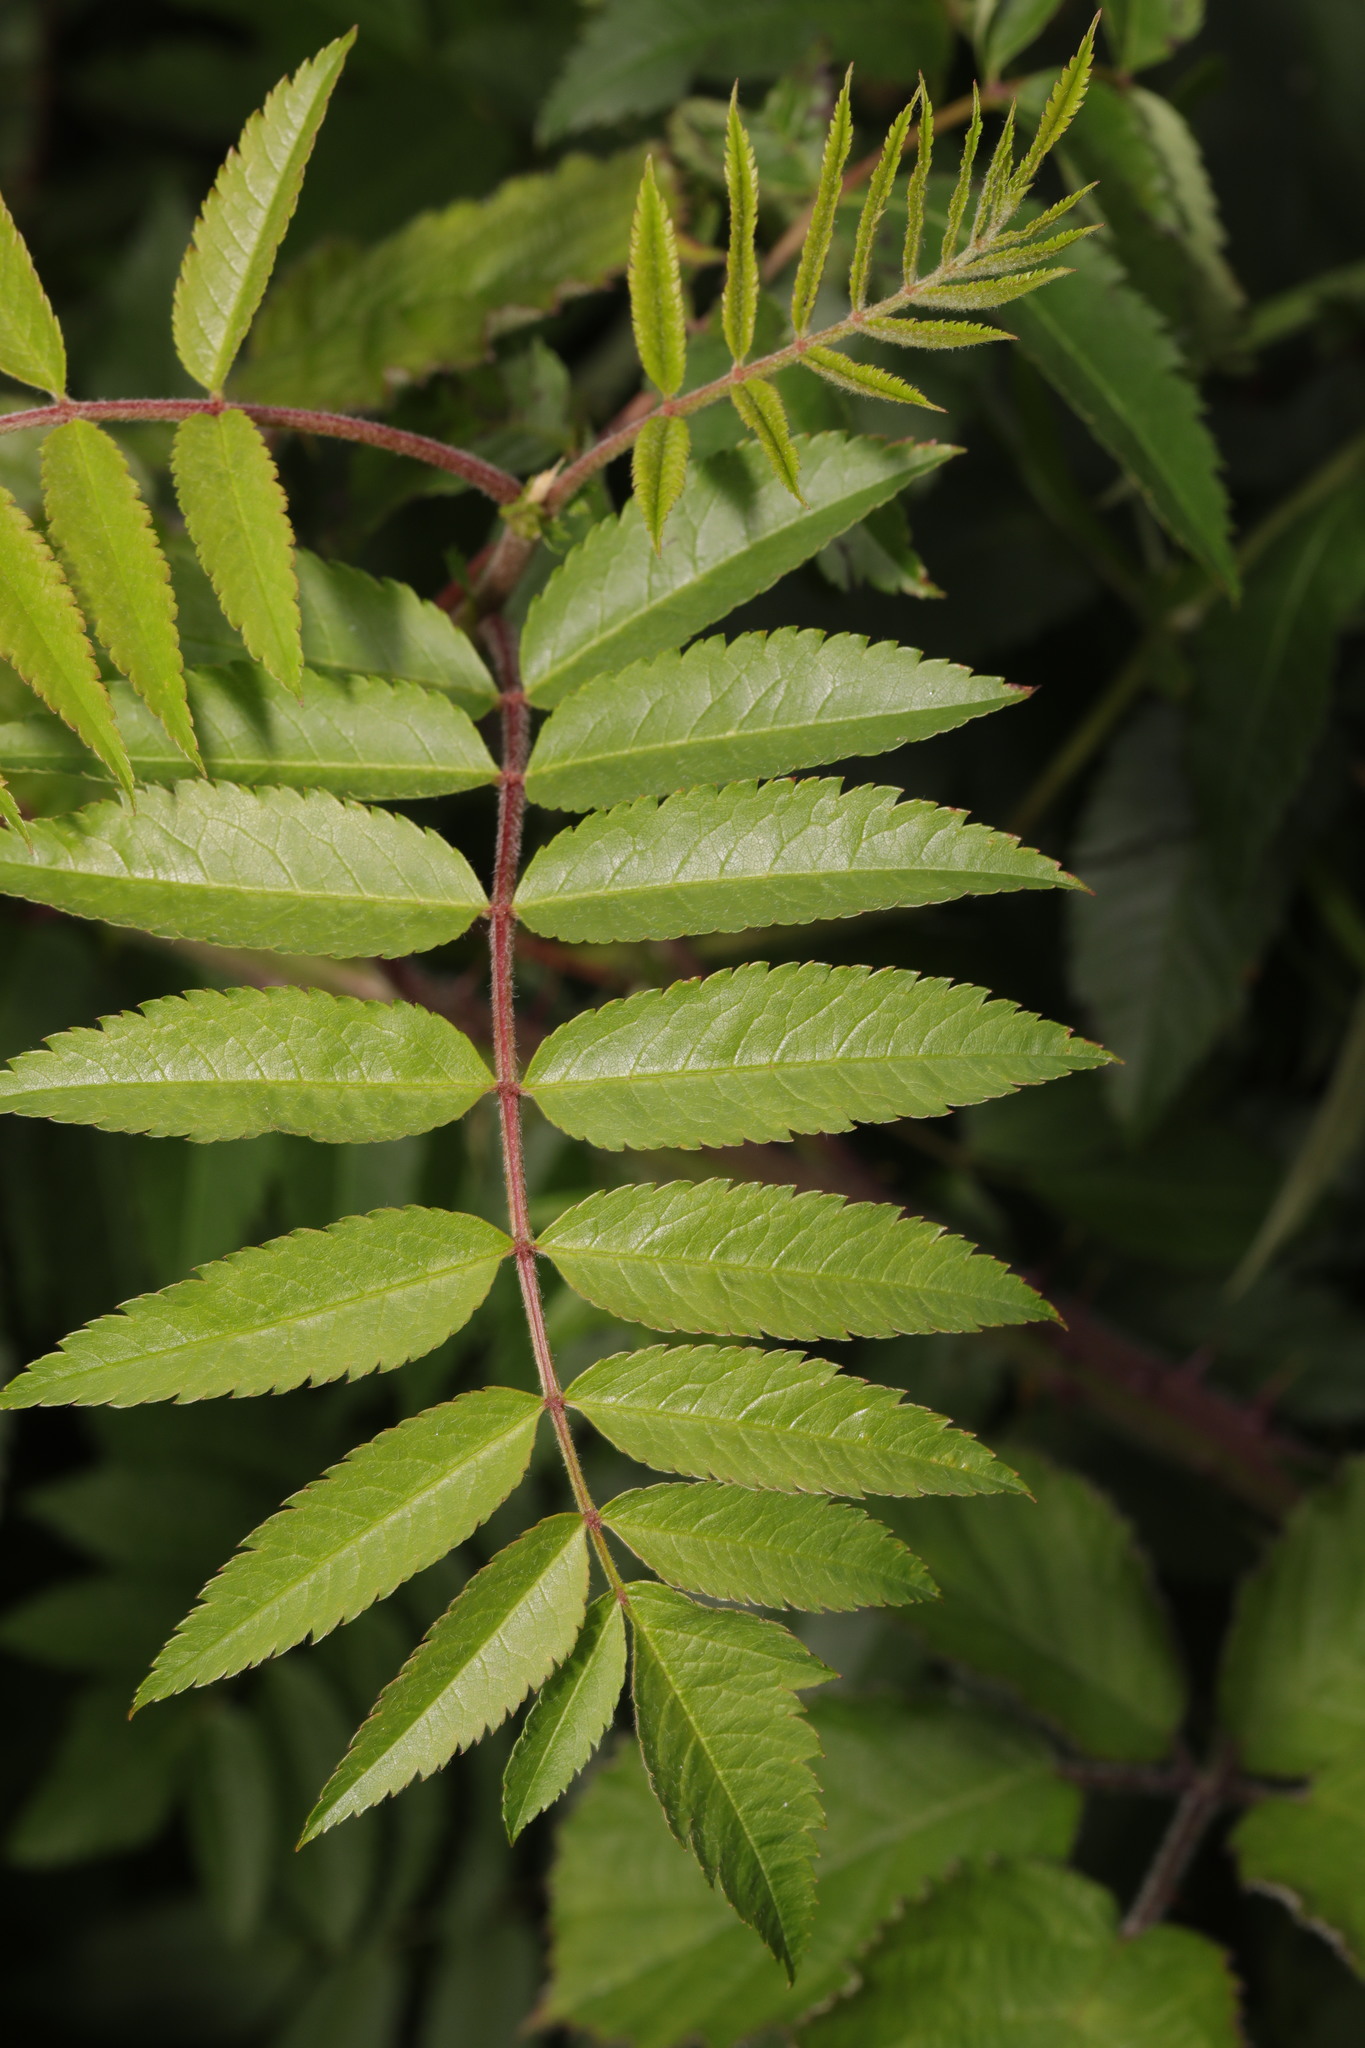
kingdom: Plantae
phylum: Tracheophyta
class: Magnoliopsida
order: Rosales
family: Rosaceae
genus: Sorbus
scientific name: Sorbus aucuparia
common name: Rowan
